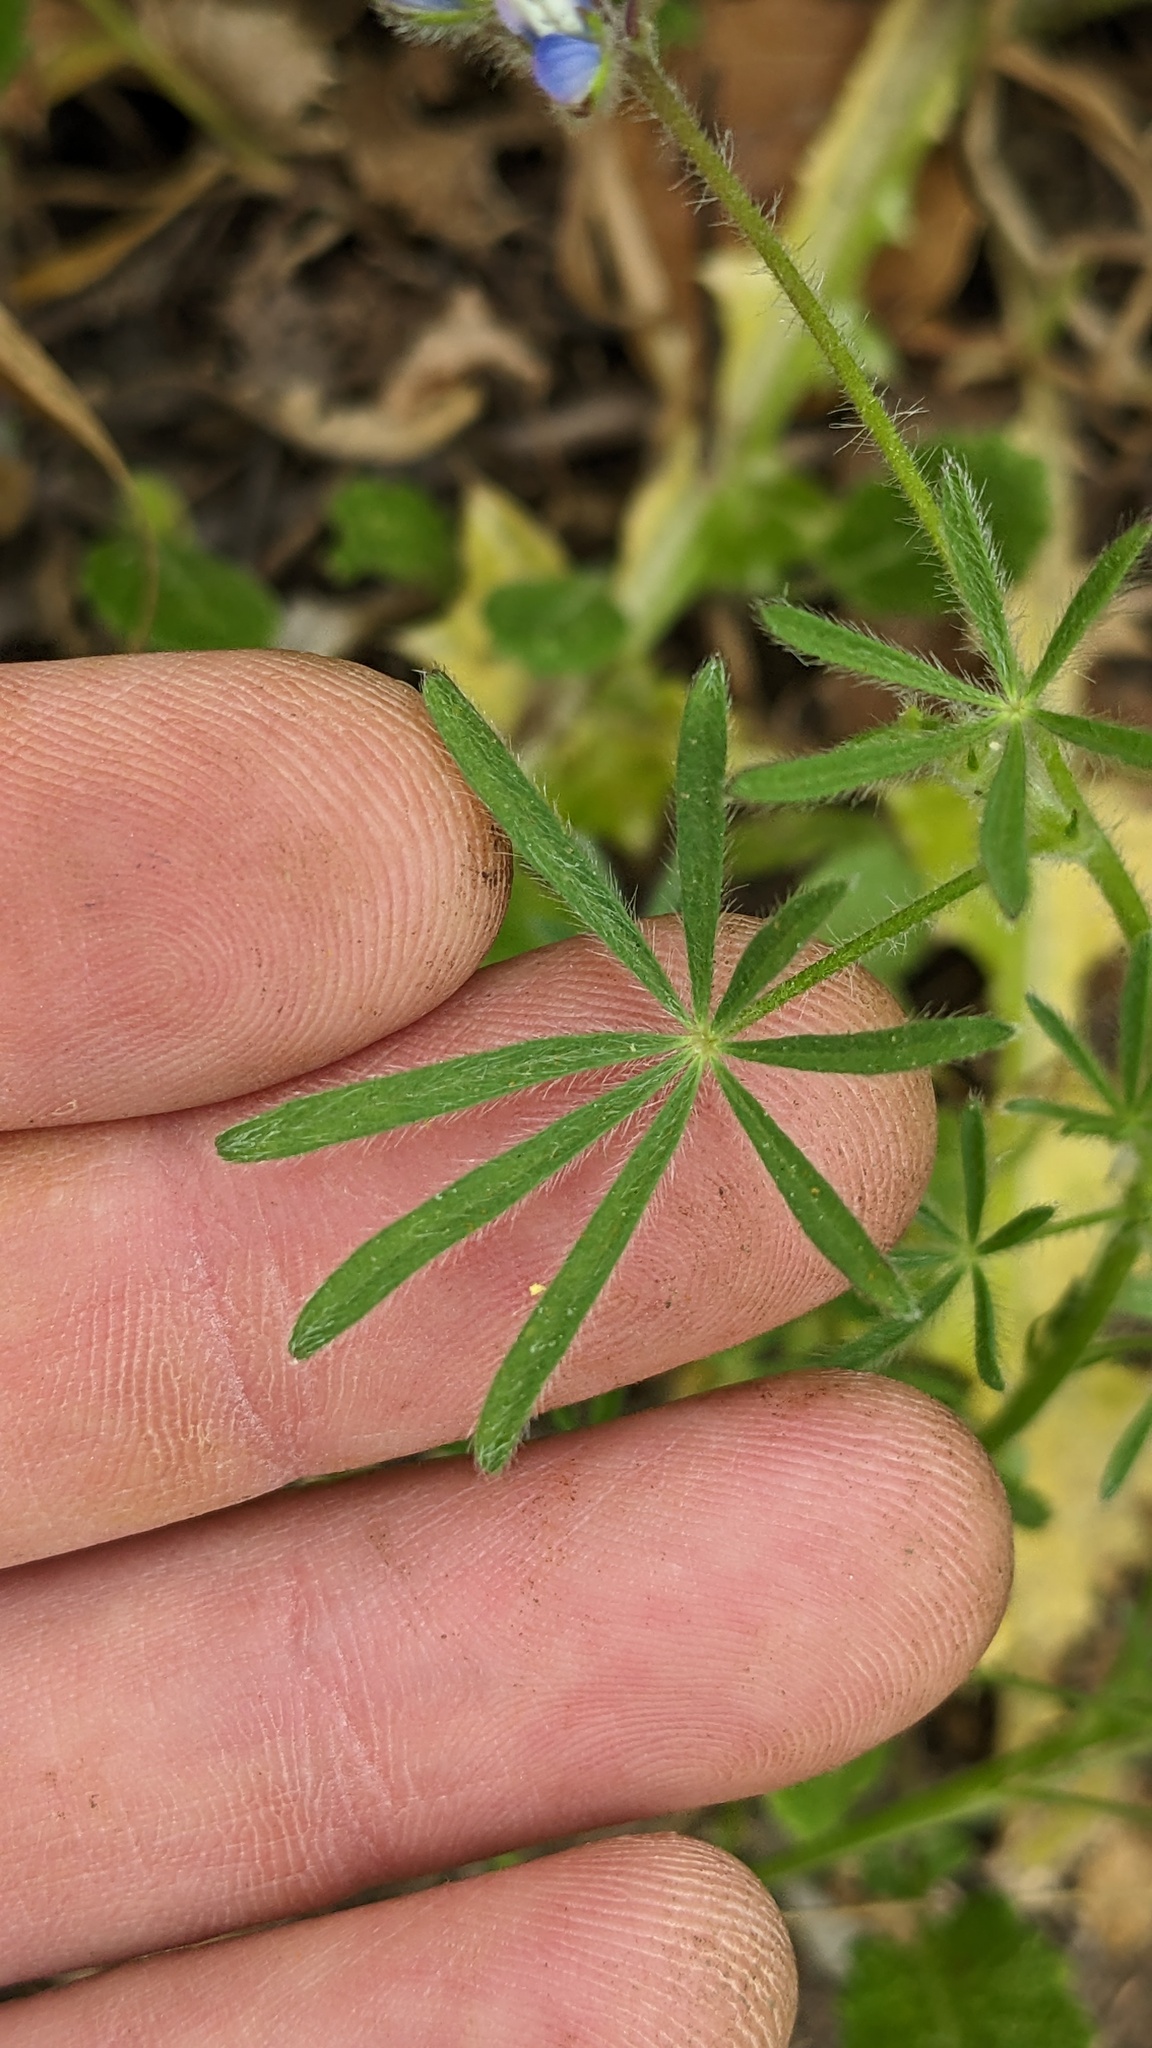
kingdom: Plantae
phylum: Tracheophyta
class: Magnoliopsida
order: Fabales
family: Fabaceae
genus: Lupinus
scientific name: Lupinus bicolor
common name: Miniature lupine
